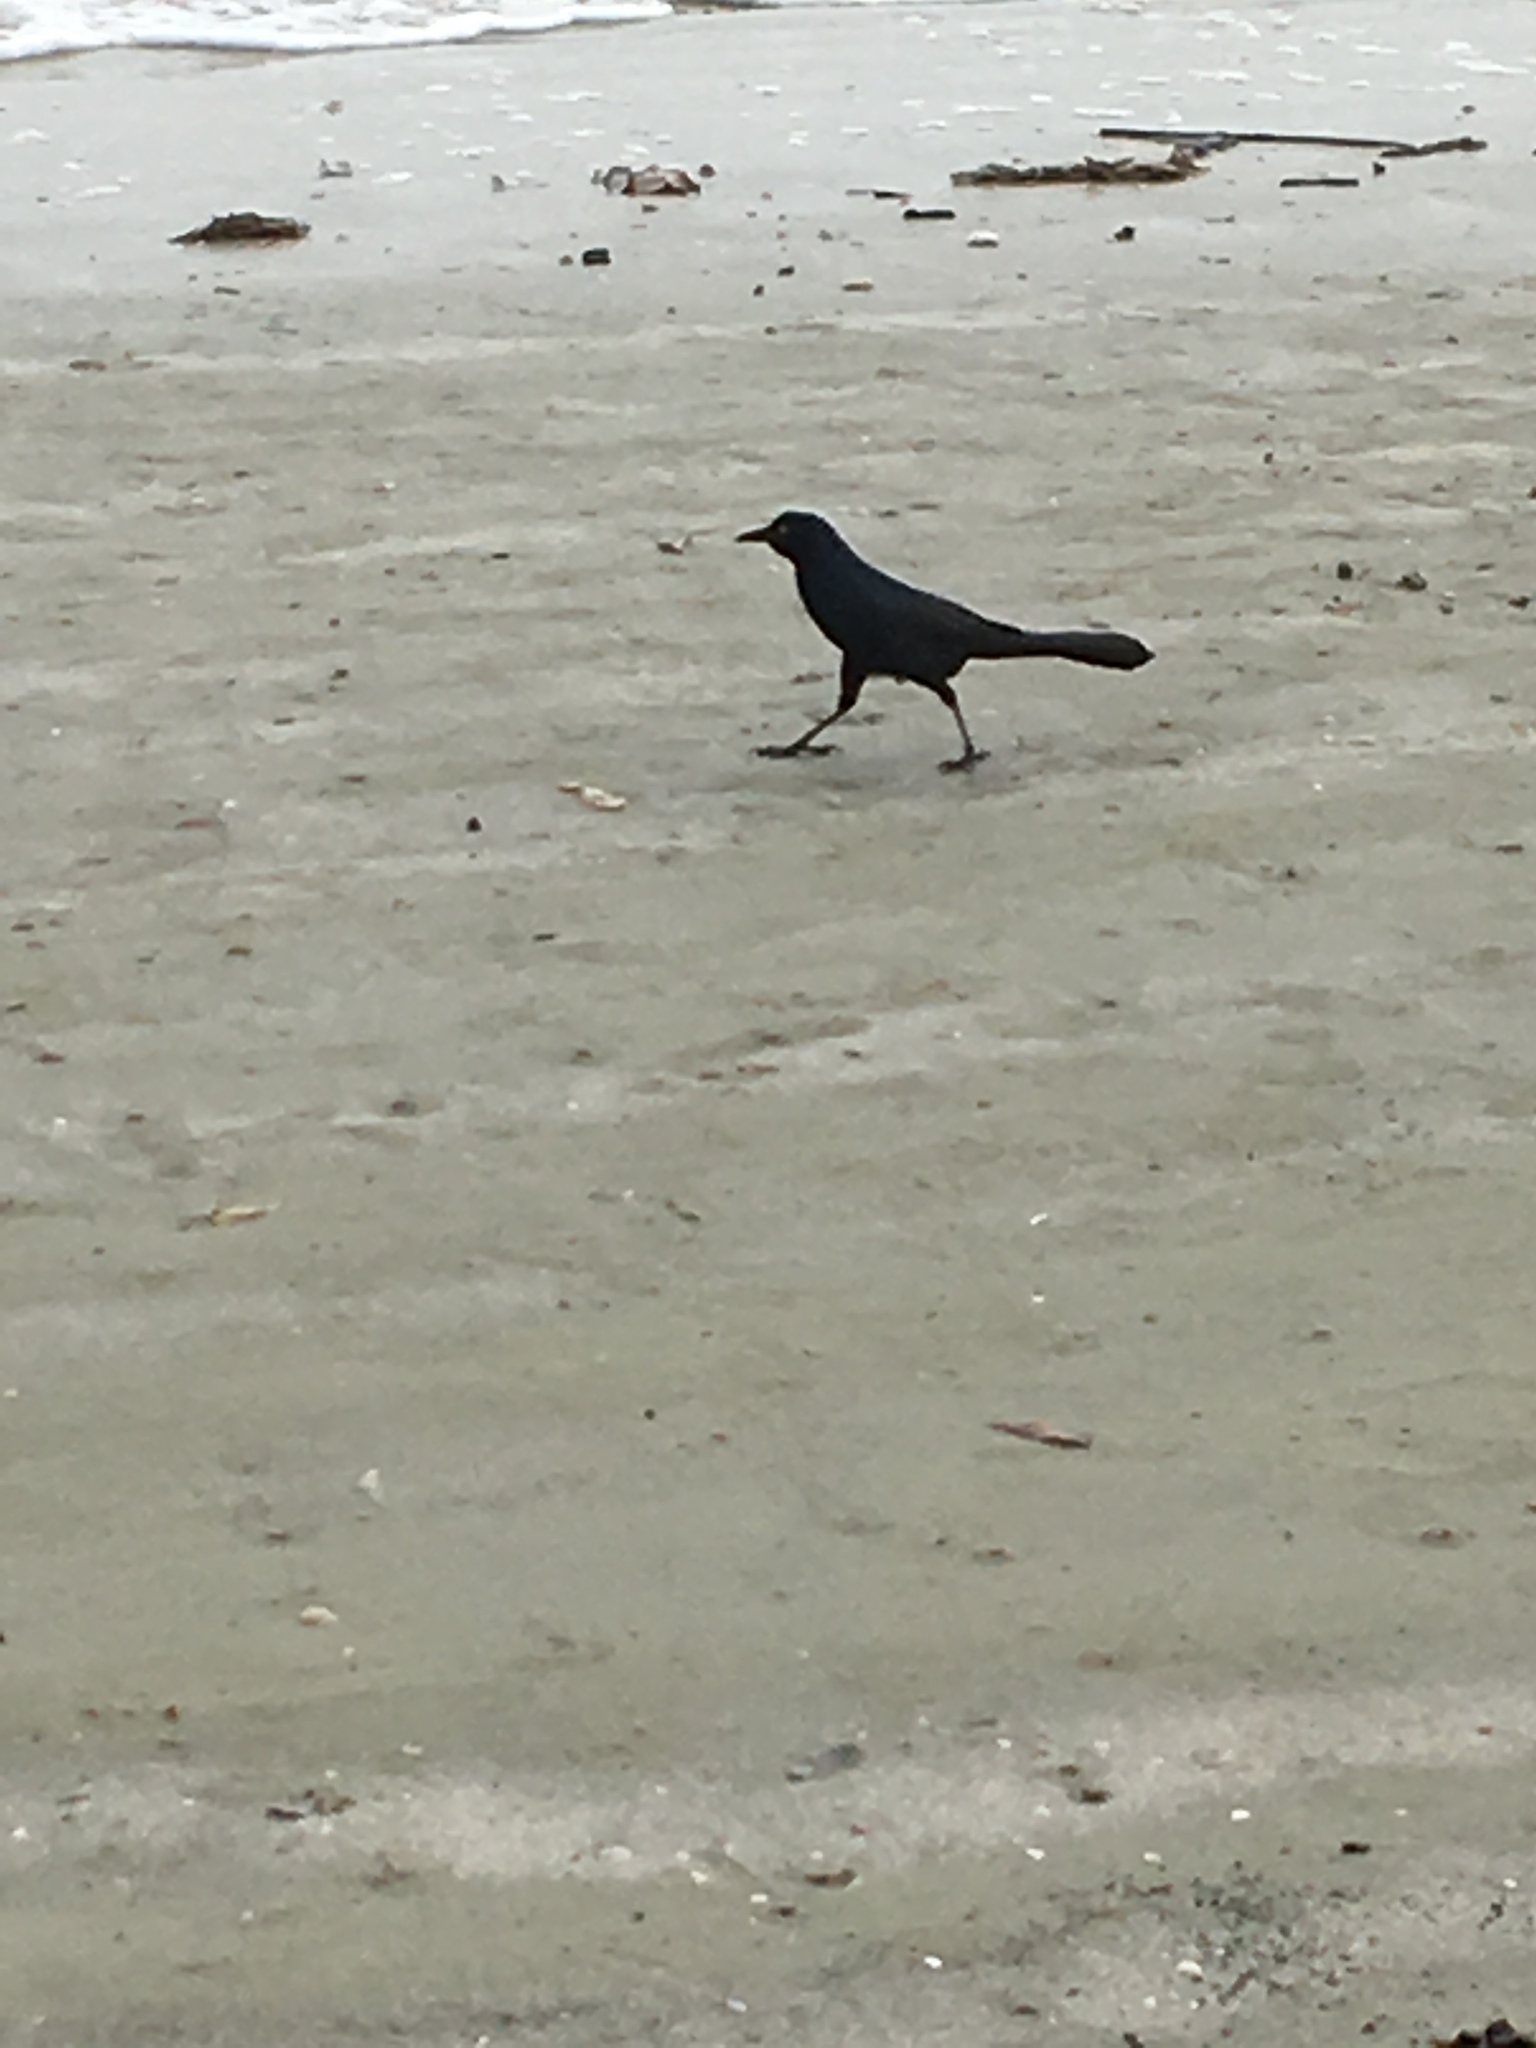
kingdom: Animalia
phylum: Chordata
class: Aves
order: Passeriformes
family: Icteridae
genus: Quiscalus
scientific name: Quiscalus major
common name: Boat-tailed grackle
